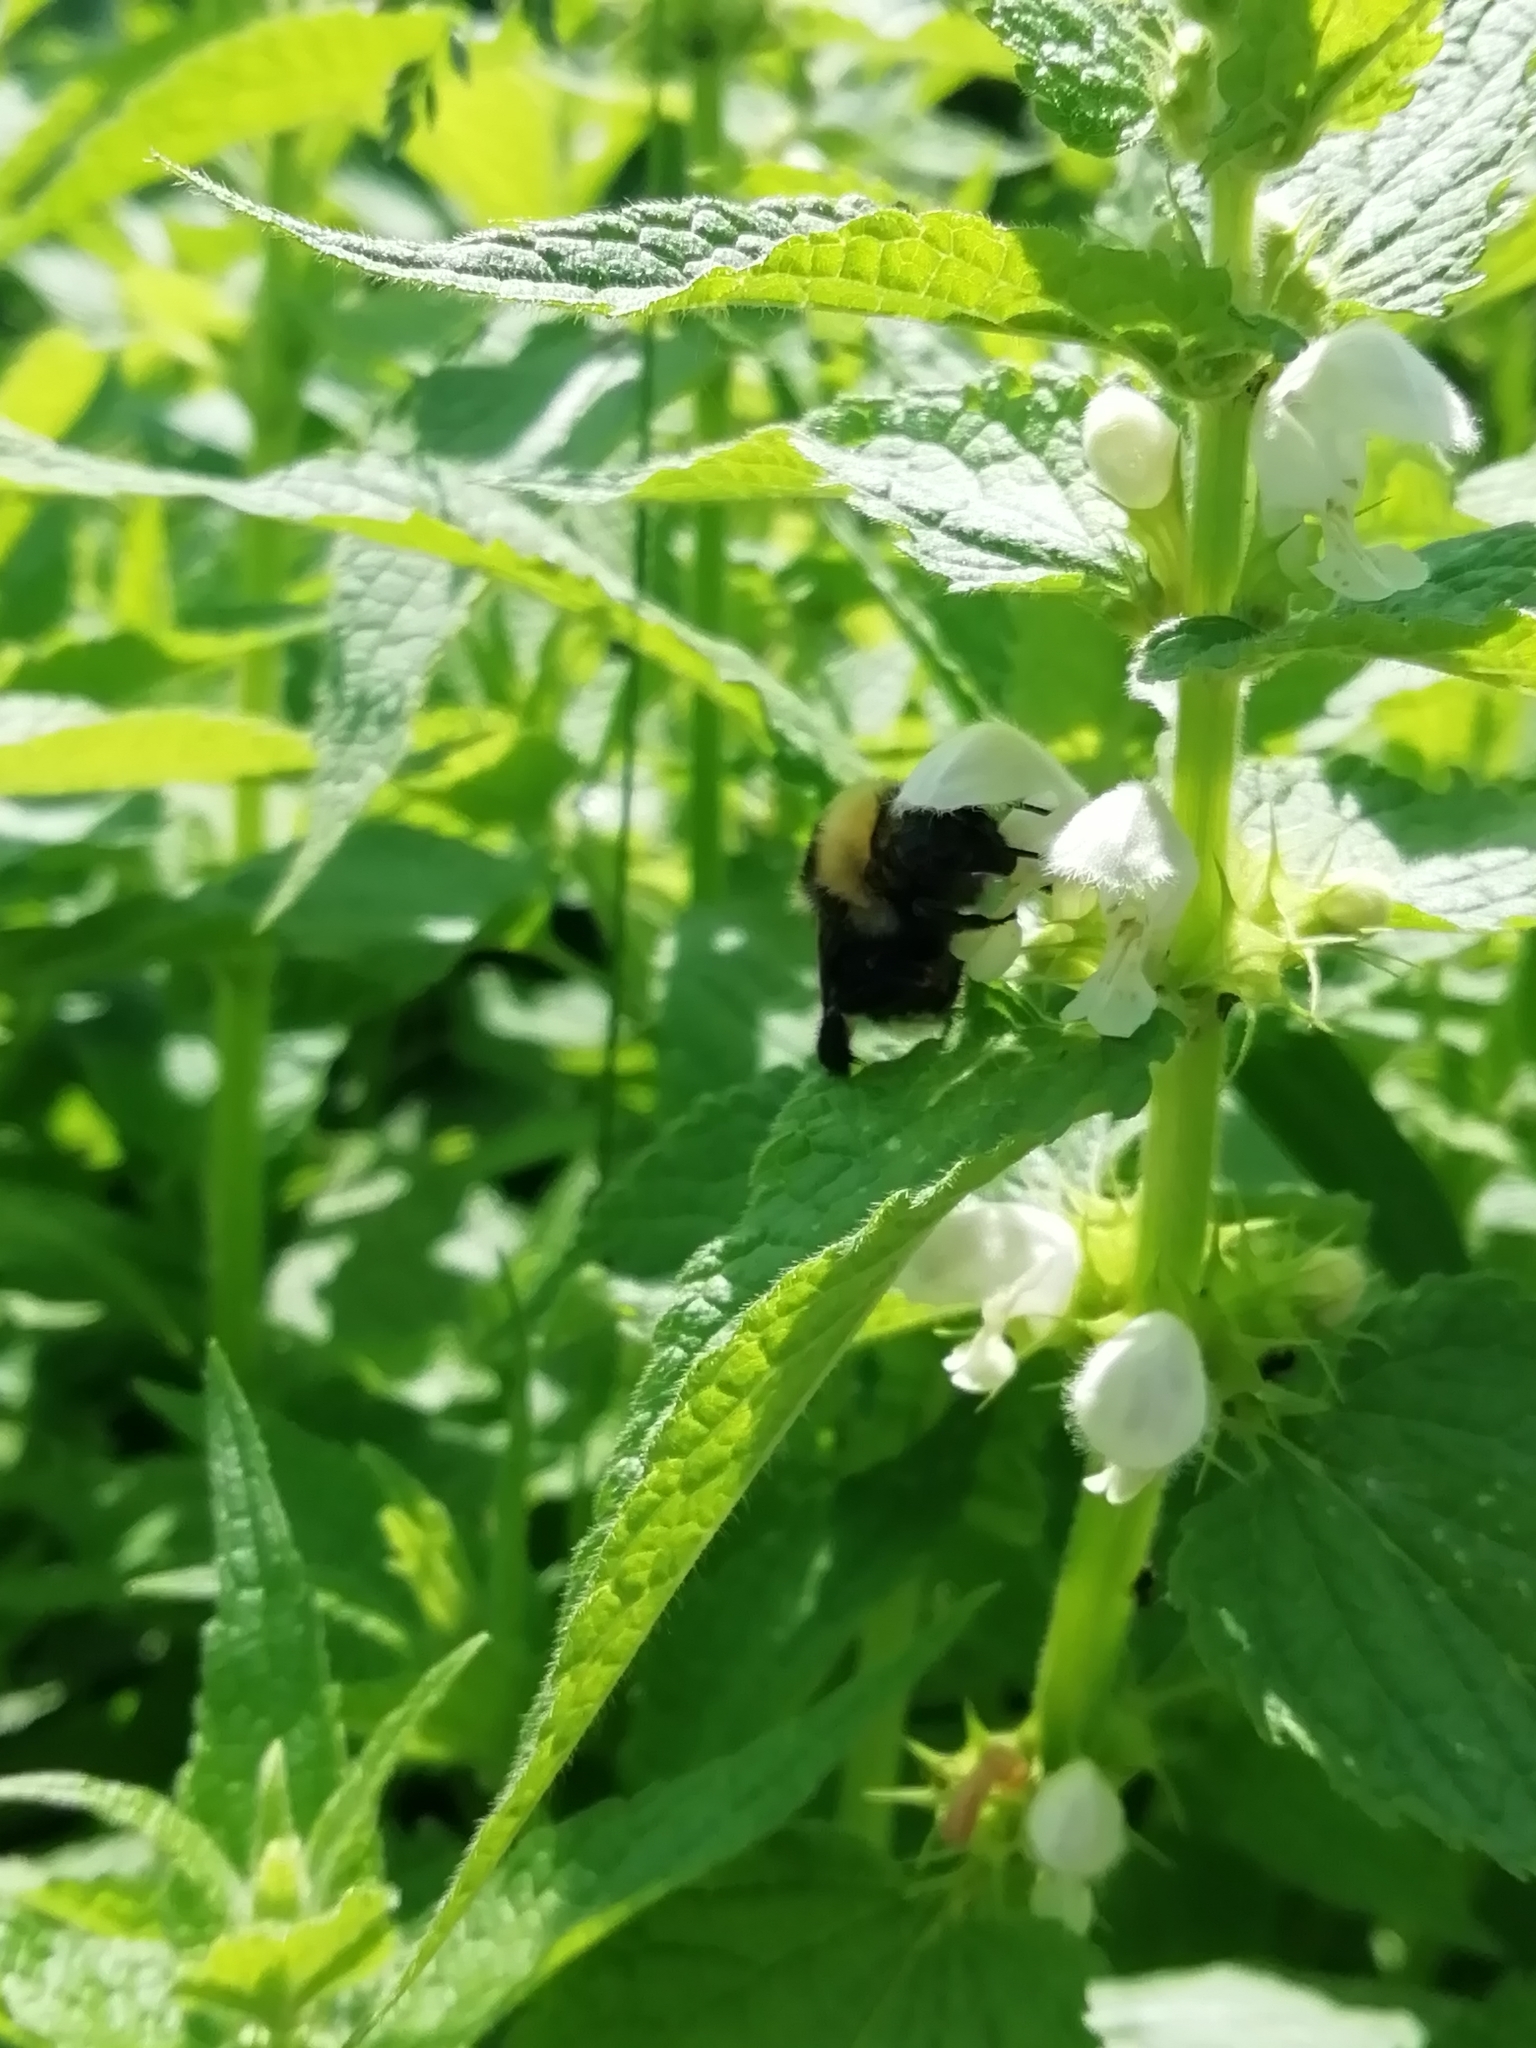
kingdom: Animalia
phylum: Arthropoda
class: Insecta
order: Hymenoptera
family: Apidae
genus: Bombus
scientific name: Bombus campestris
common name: Field cuckoo-bee
